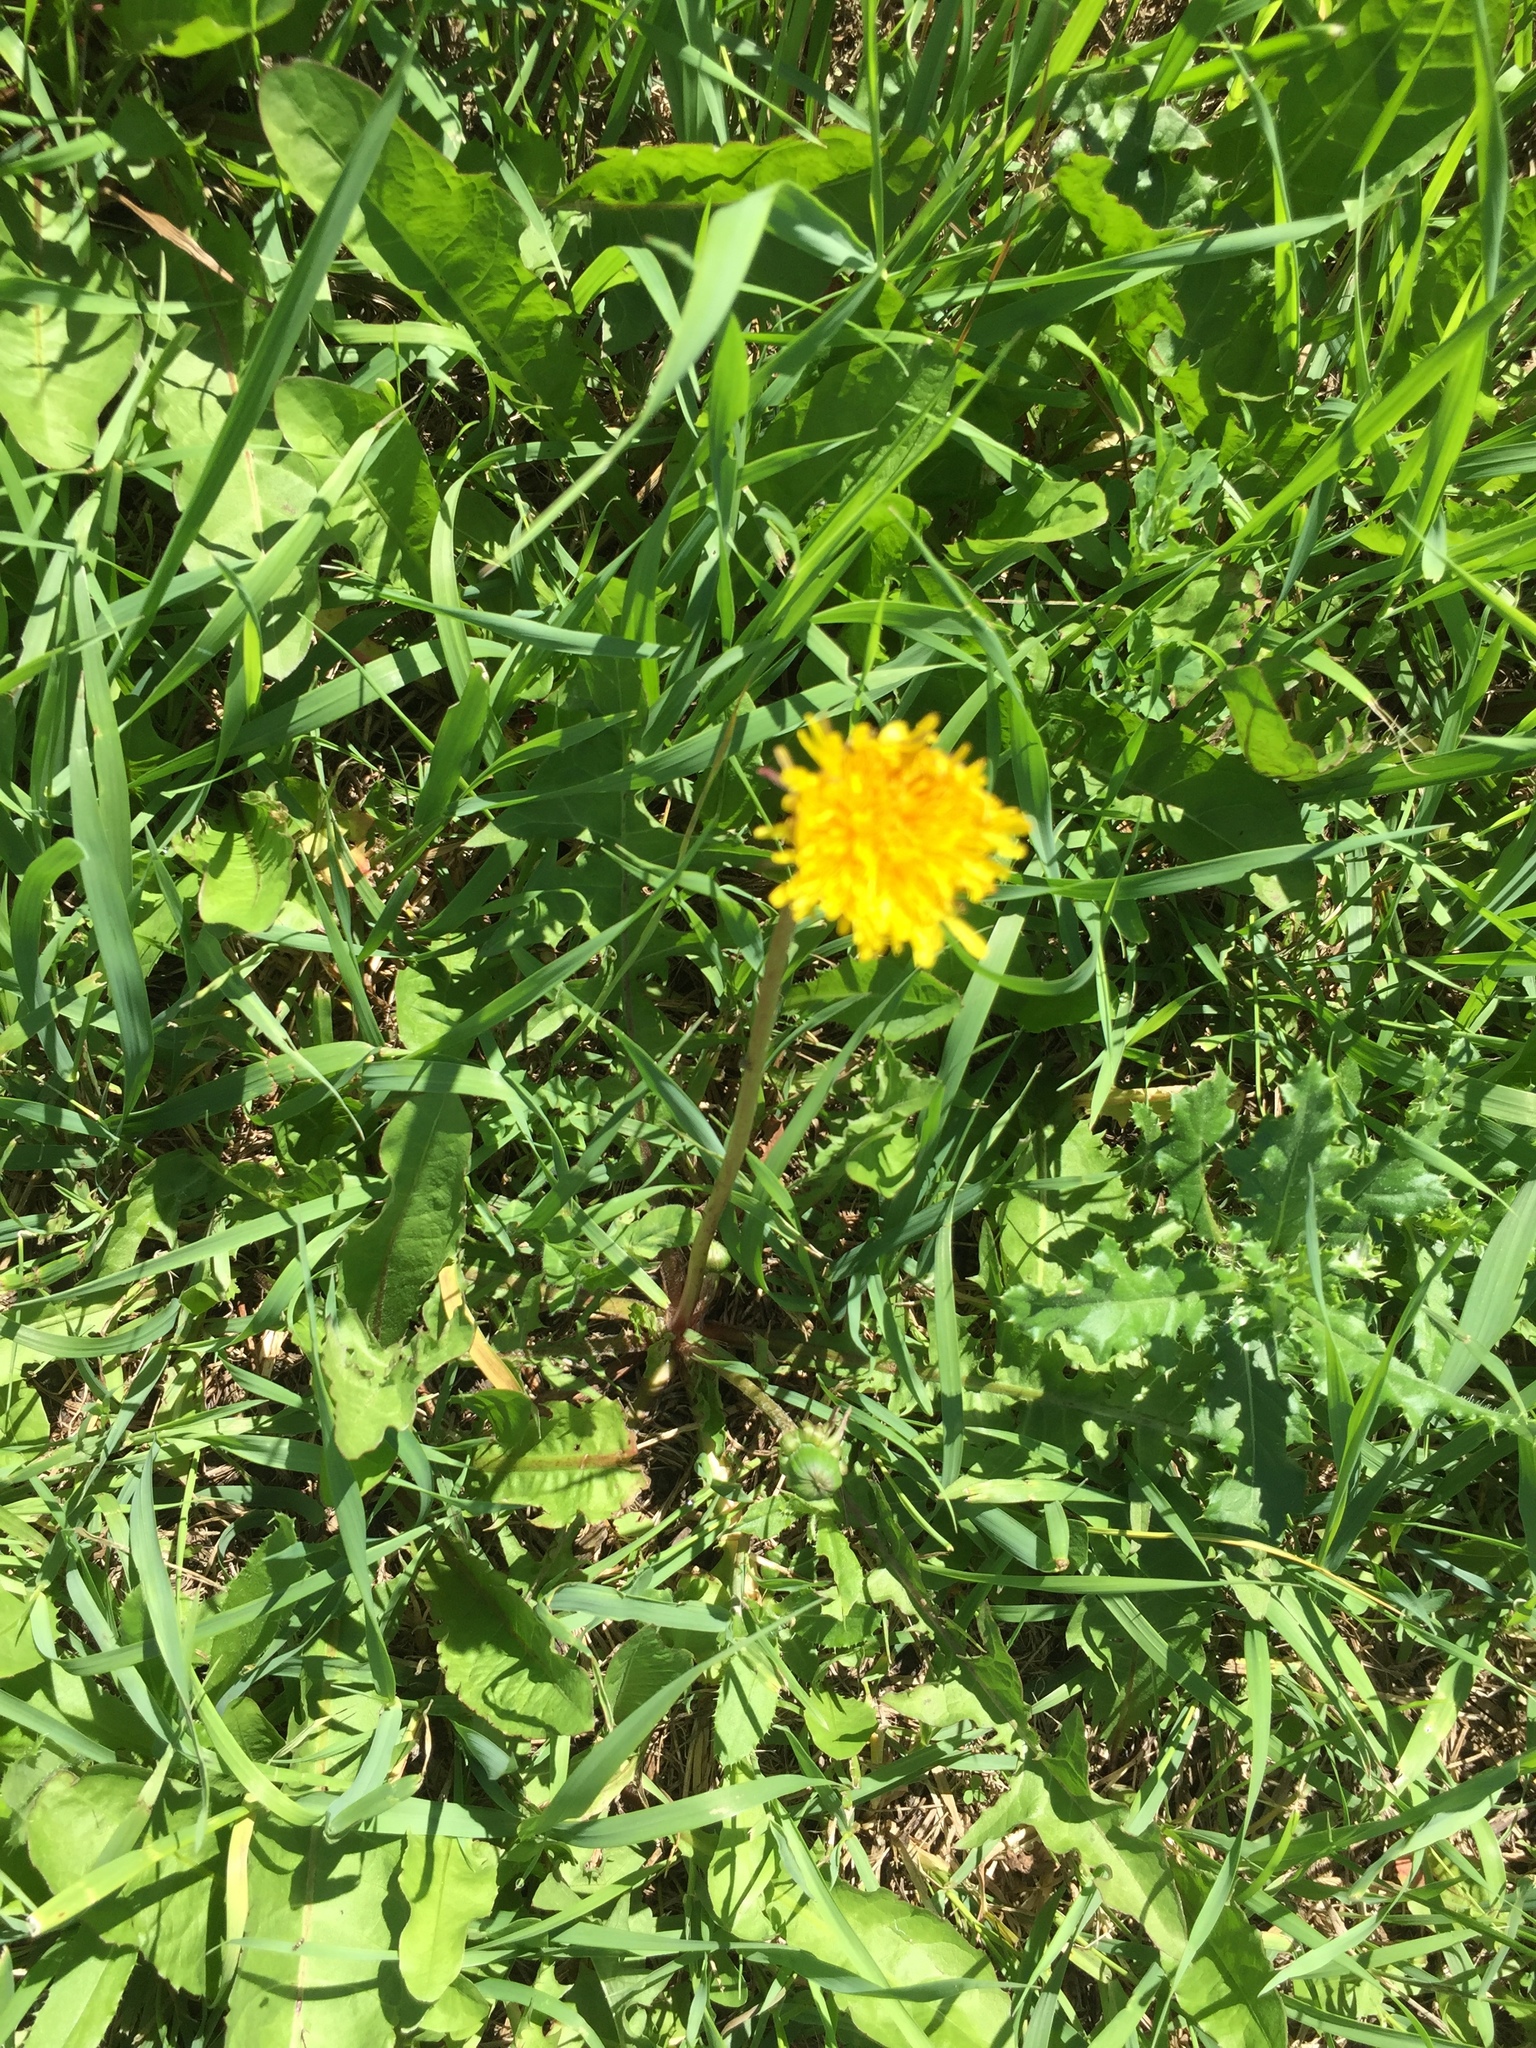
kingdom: Plantae
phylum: Tracheophyta
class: Magnoliopsida
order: Asterales
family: Asteraceae
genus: Taraxacum
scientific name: Taraxacum officinale
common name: Common dandelion
